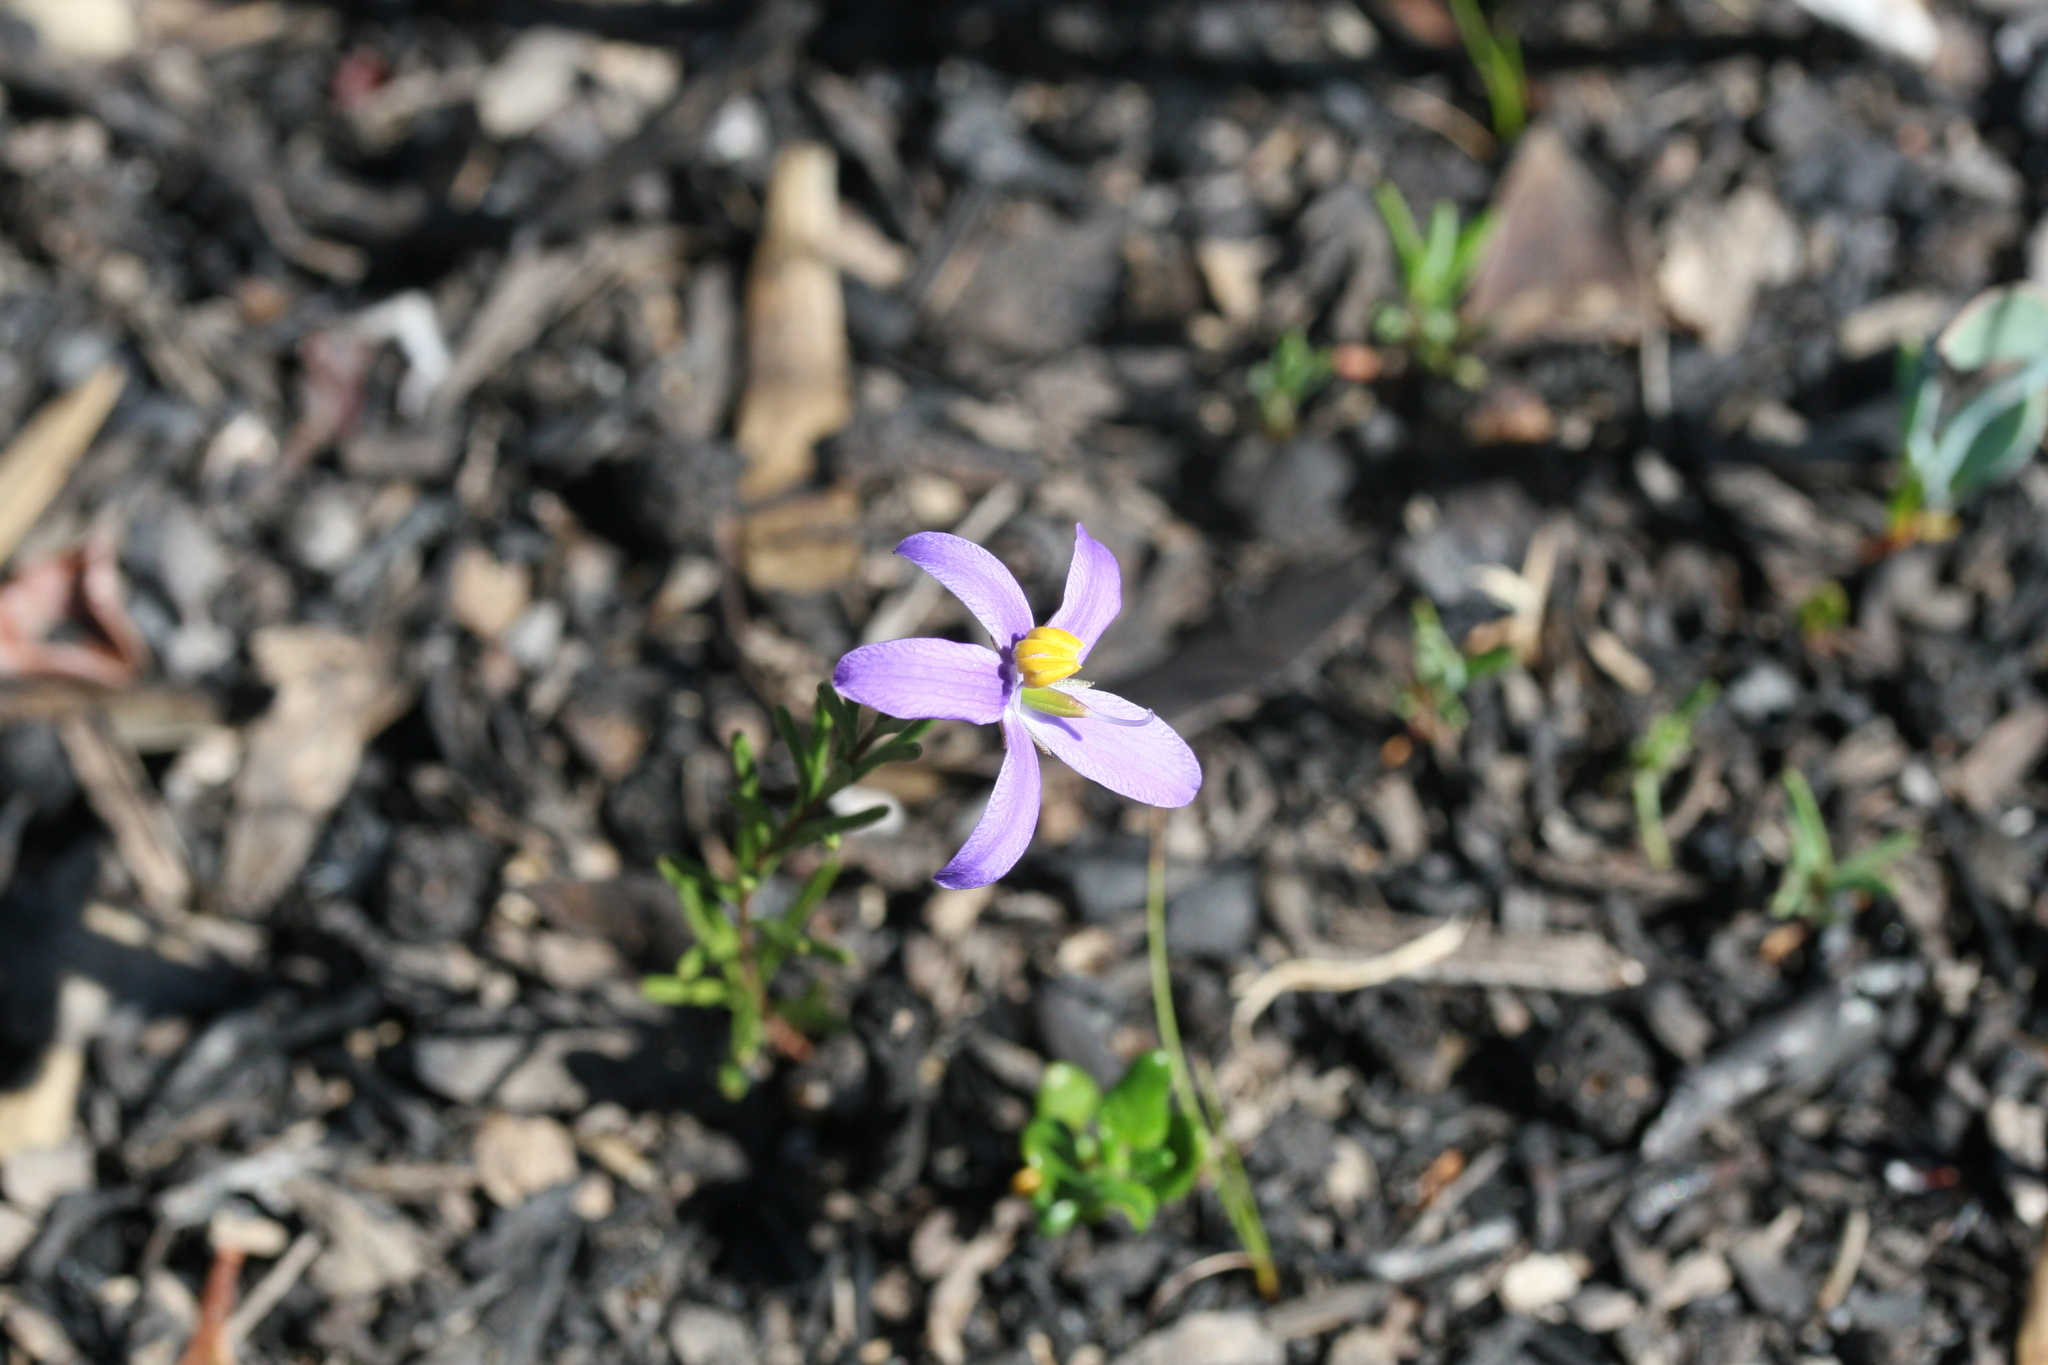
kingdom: Plantae
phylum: Tracheophyta
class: Magnoliopsida
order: Apiales
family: Pittosporaceae
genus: Cheiranthera
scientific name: Cheiranthera brevifolia
